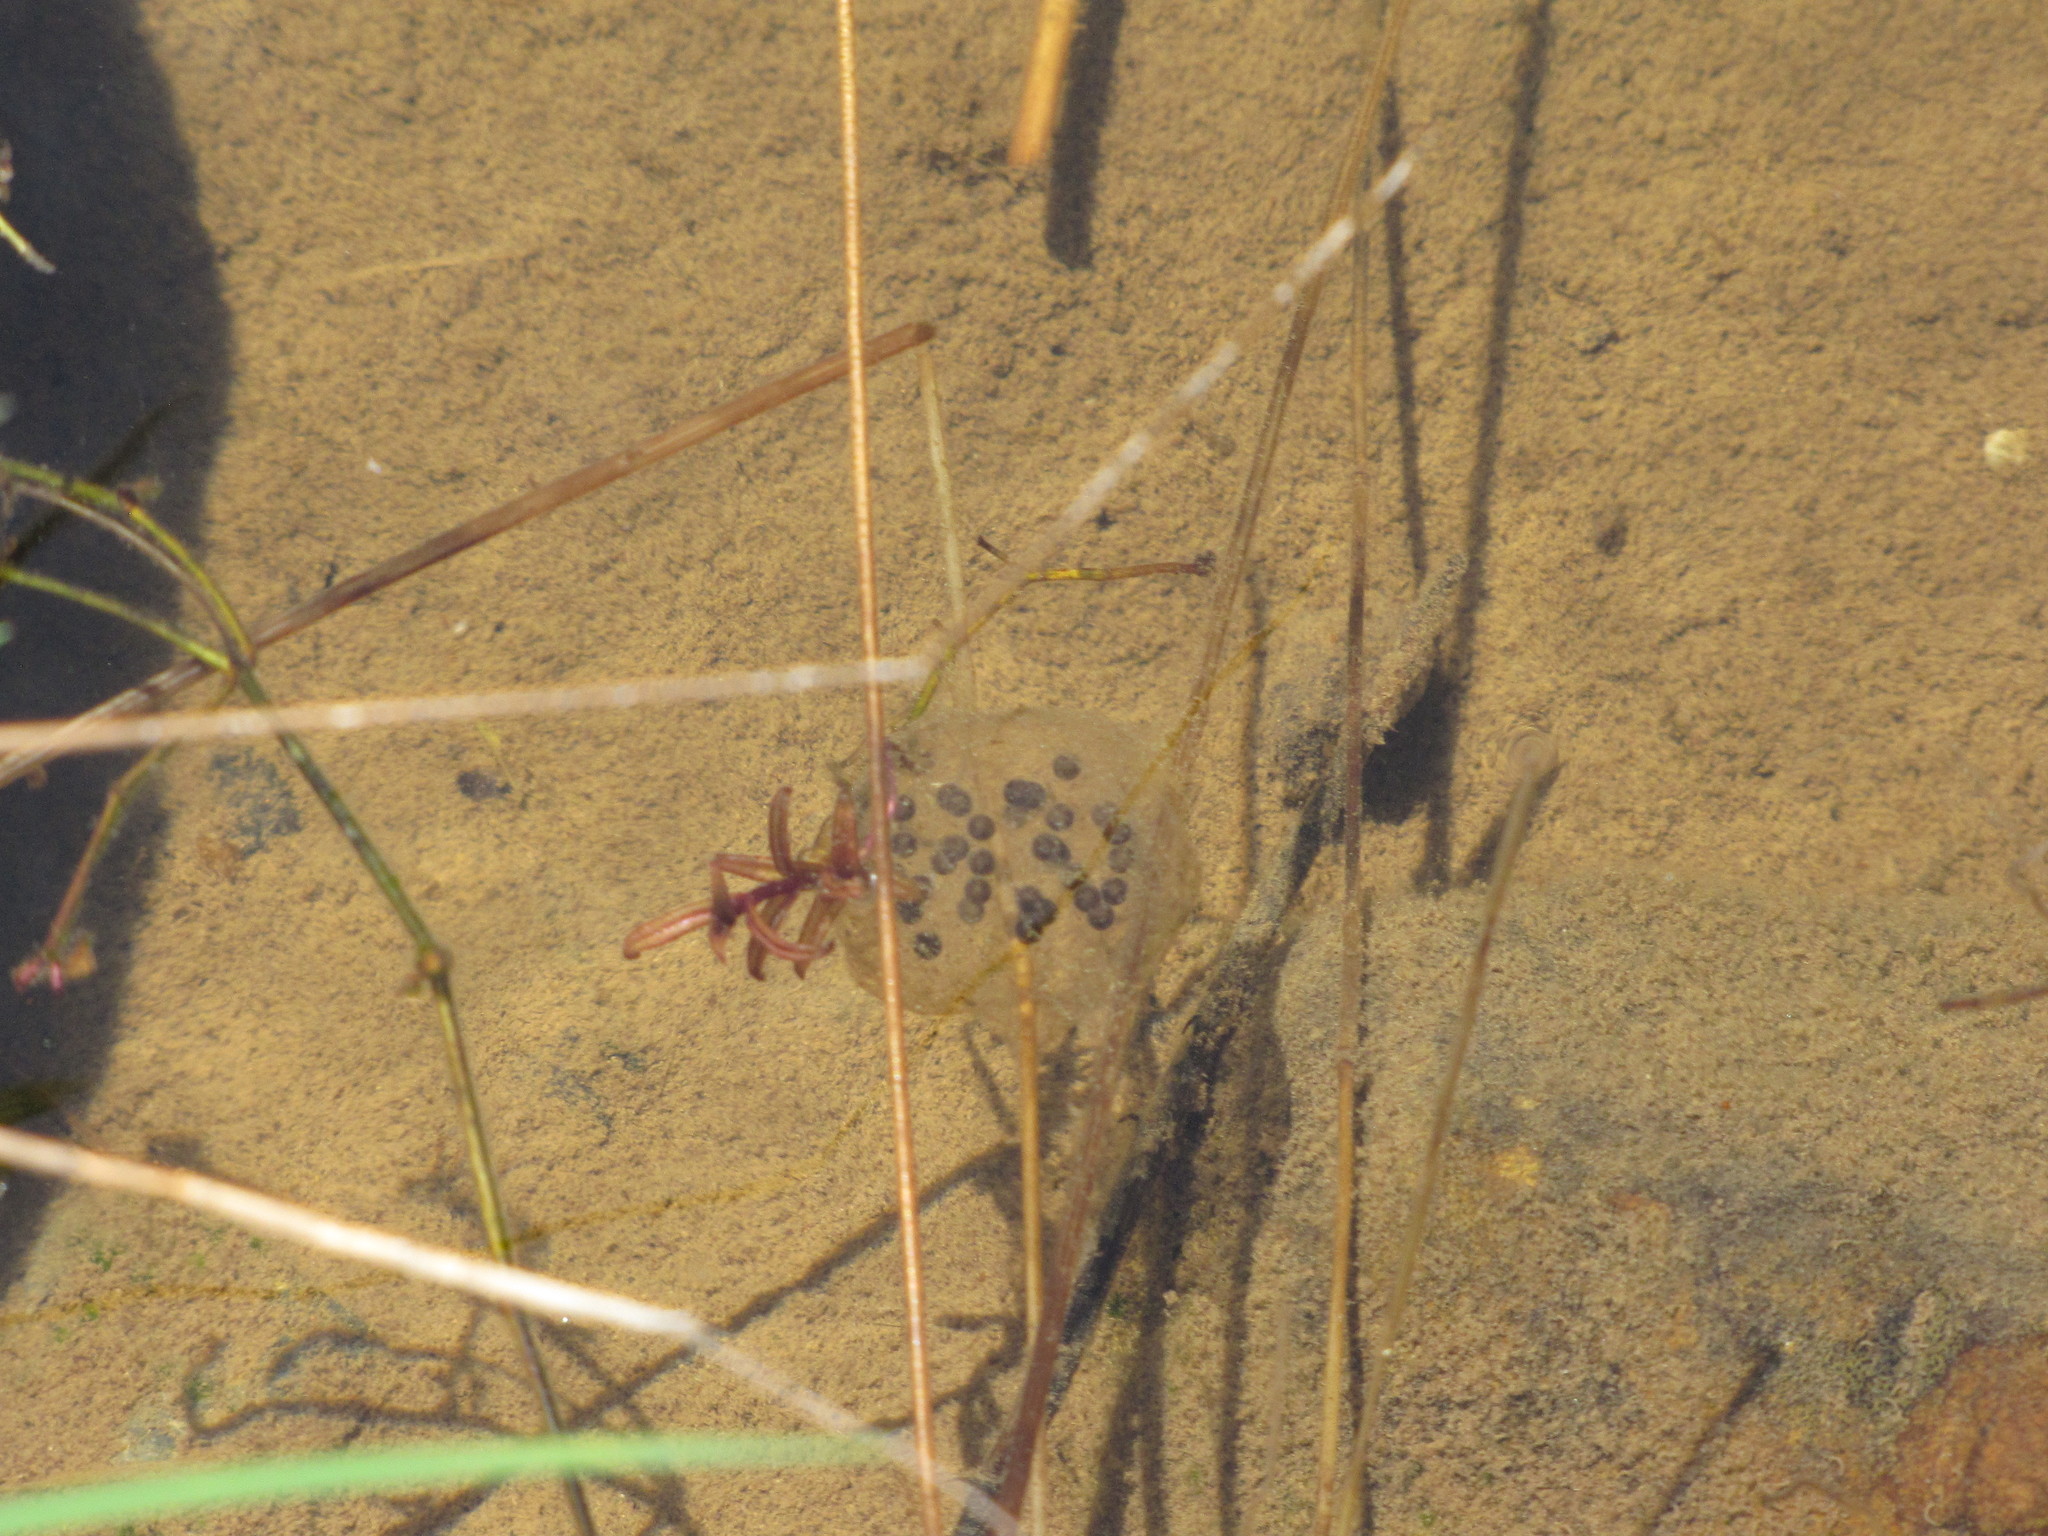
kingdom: Animalia
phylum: Chordata
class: Amphibia
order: Caudata
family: Ambystomatidae
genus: Ambystoma
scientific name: Ambystoma gracile
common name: Northwestern salamander
